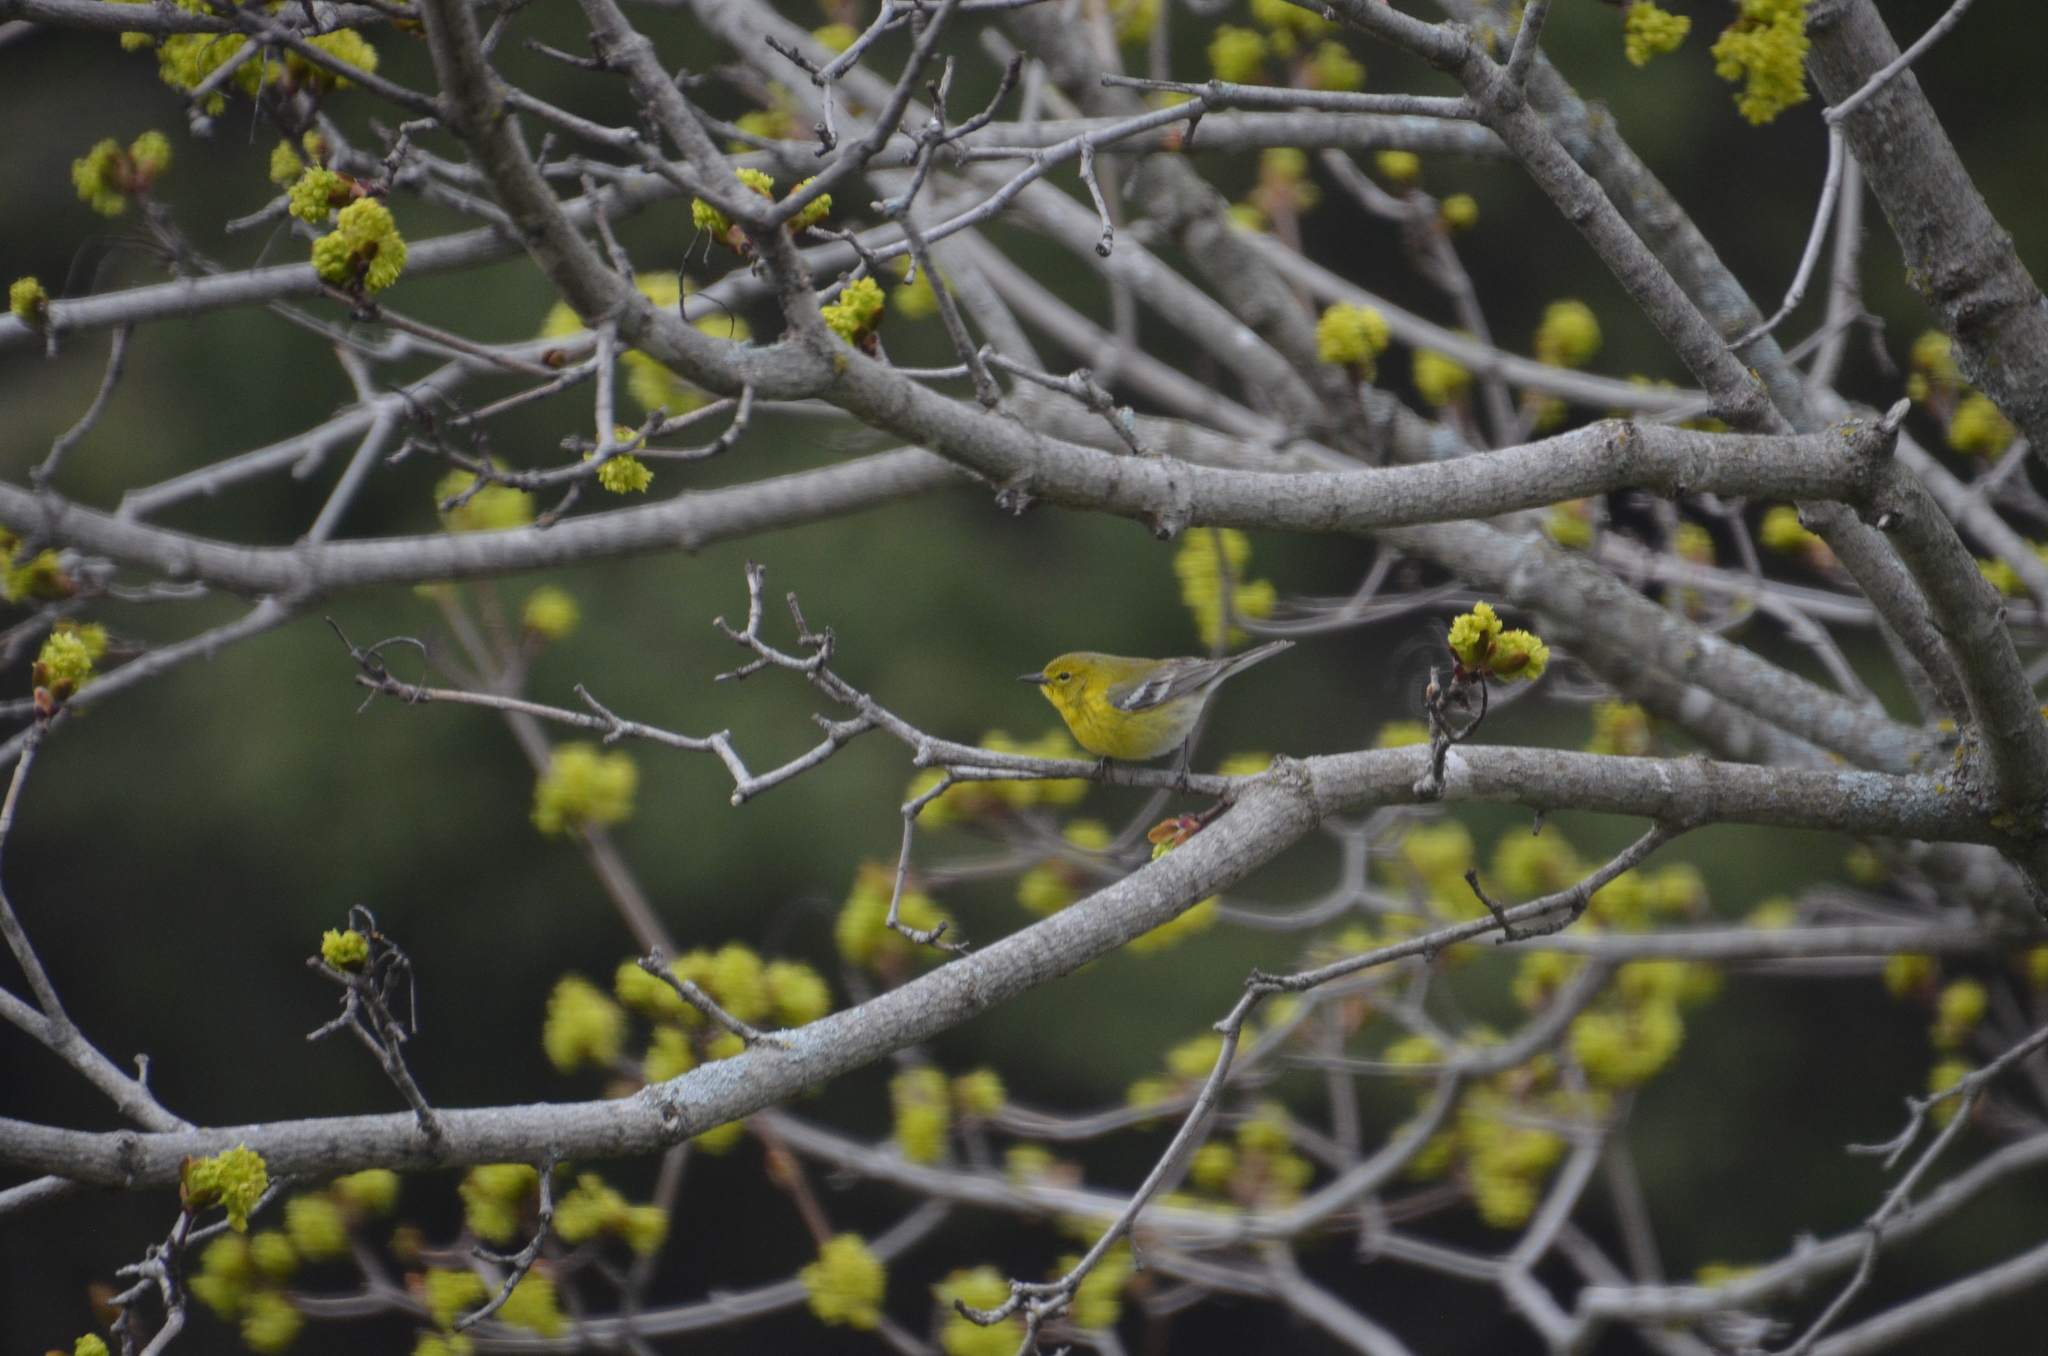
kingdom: Animalia
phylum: Chordata
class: Aves
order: Passeriformes
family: Parulidae
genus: Setophaga
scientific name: Setophaga pinus
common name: Pine warbler
